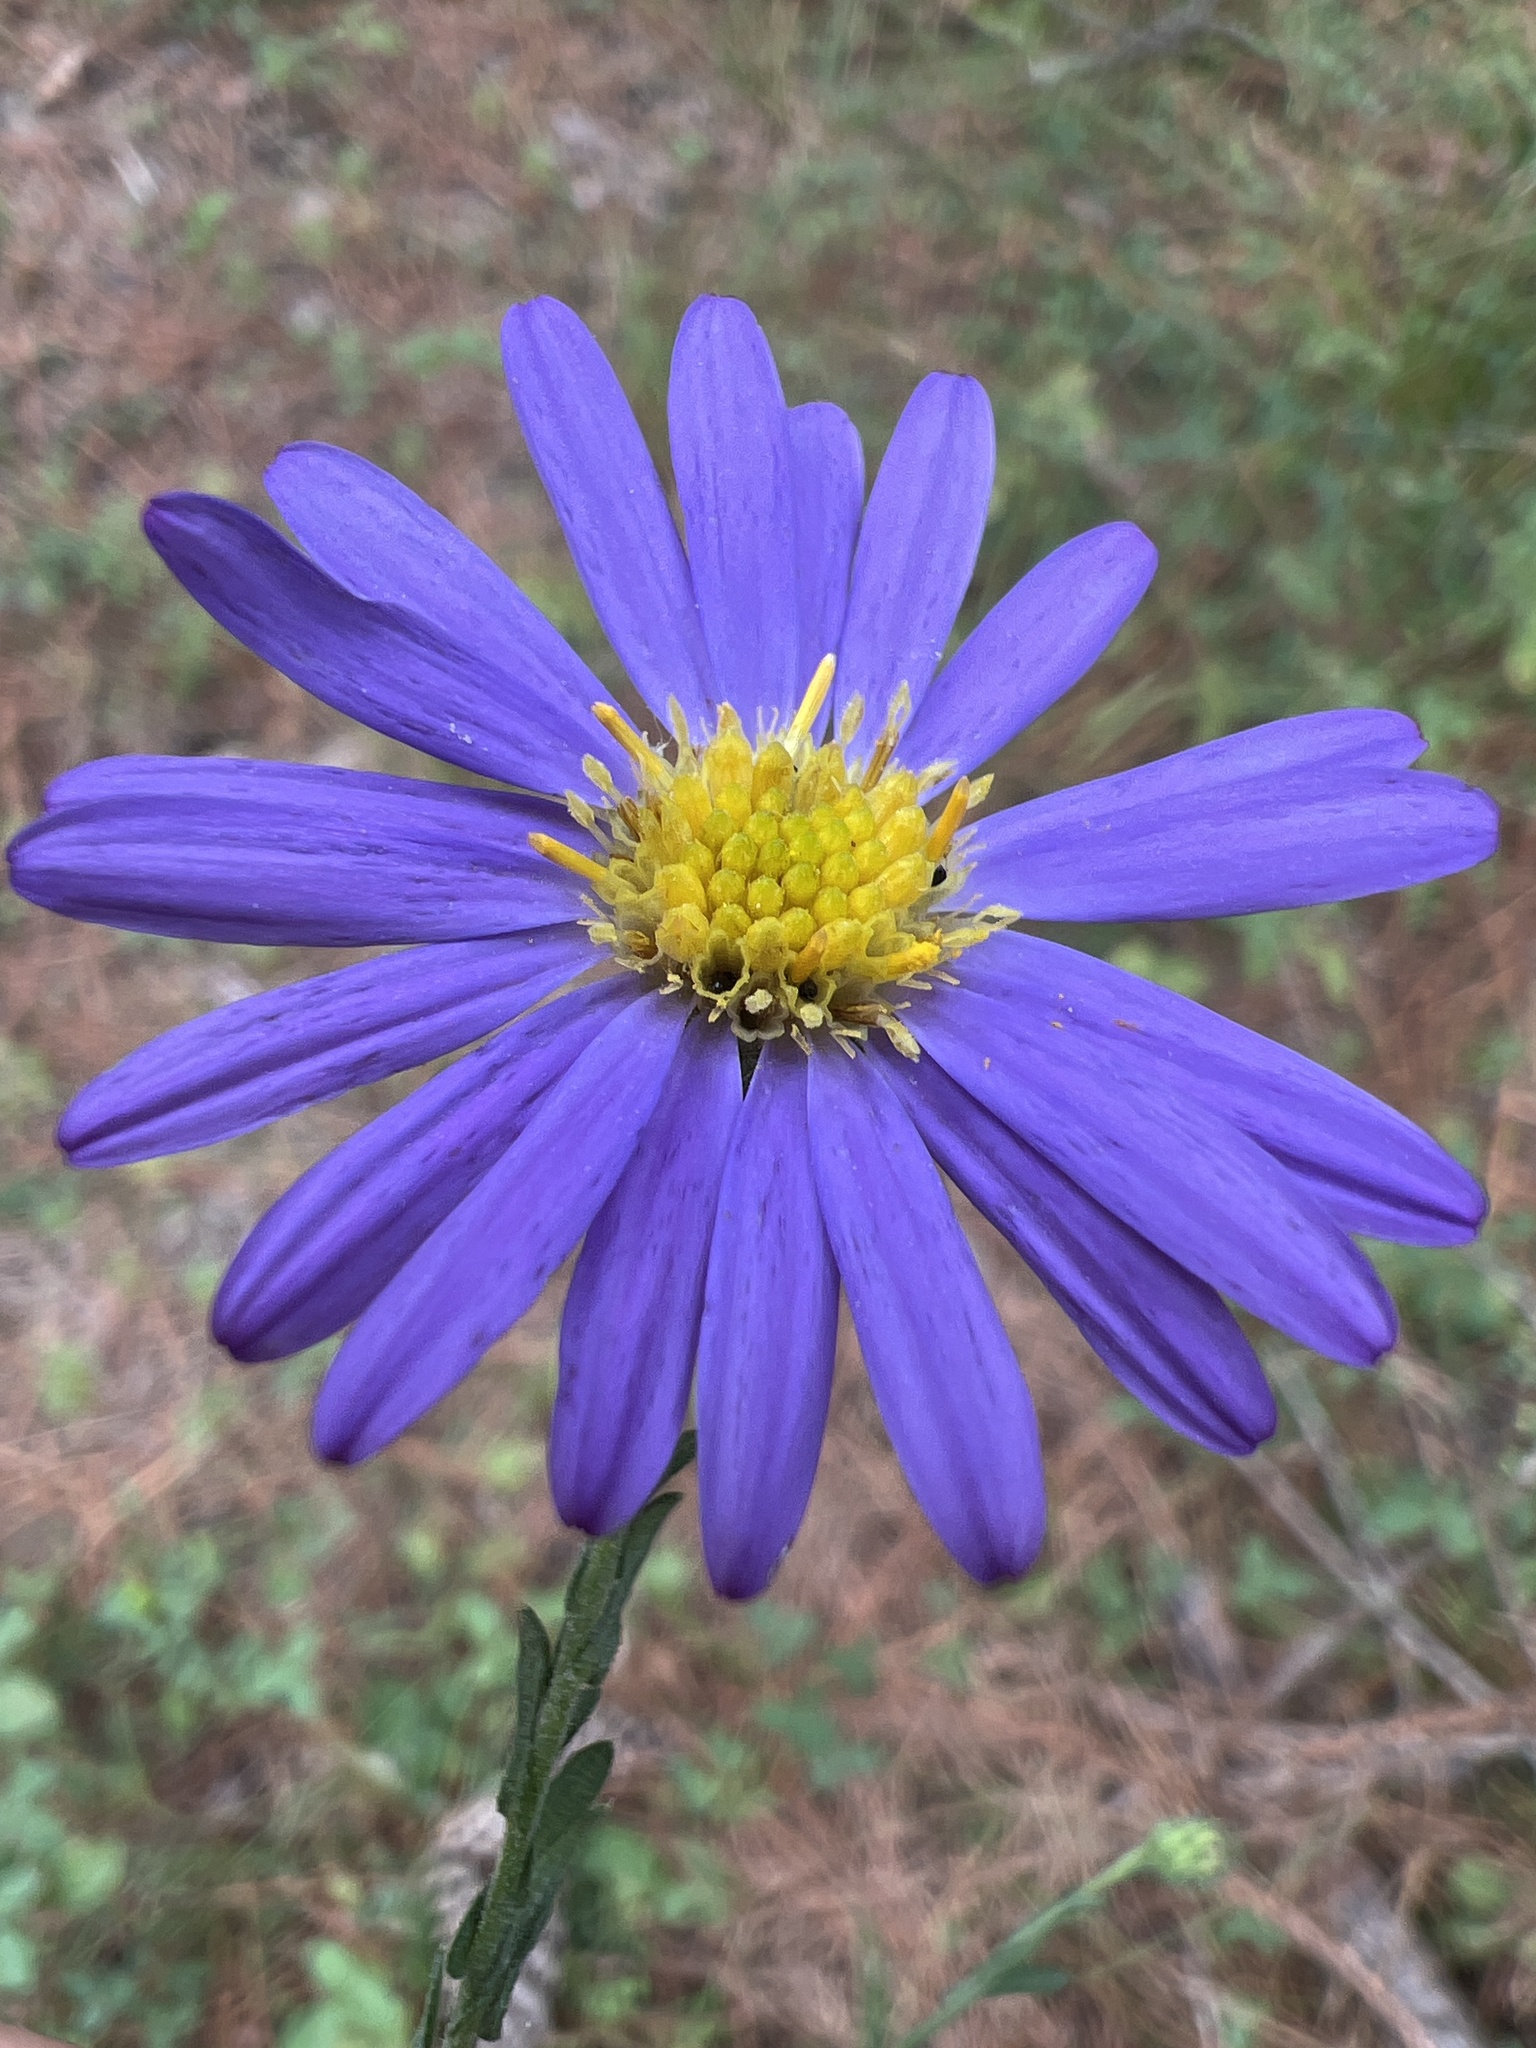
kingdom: Plantae
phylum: Tracheophyta
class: Magnoliopsida
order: Asterales
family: Asteraceae
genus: Symphyotrichum
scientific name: Symphyotrichum patens
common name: Late purple aster
